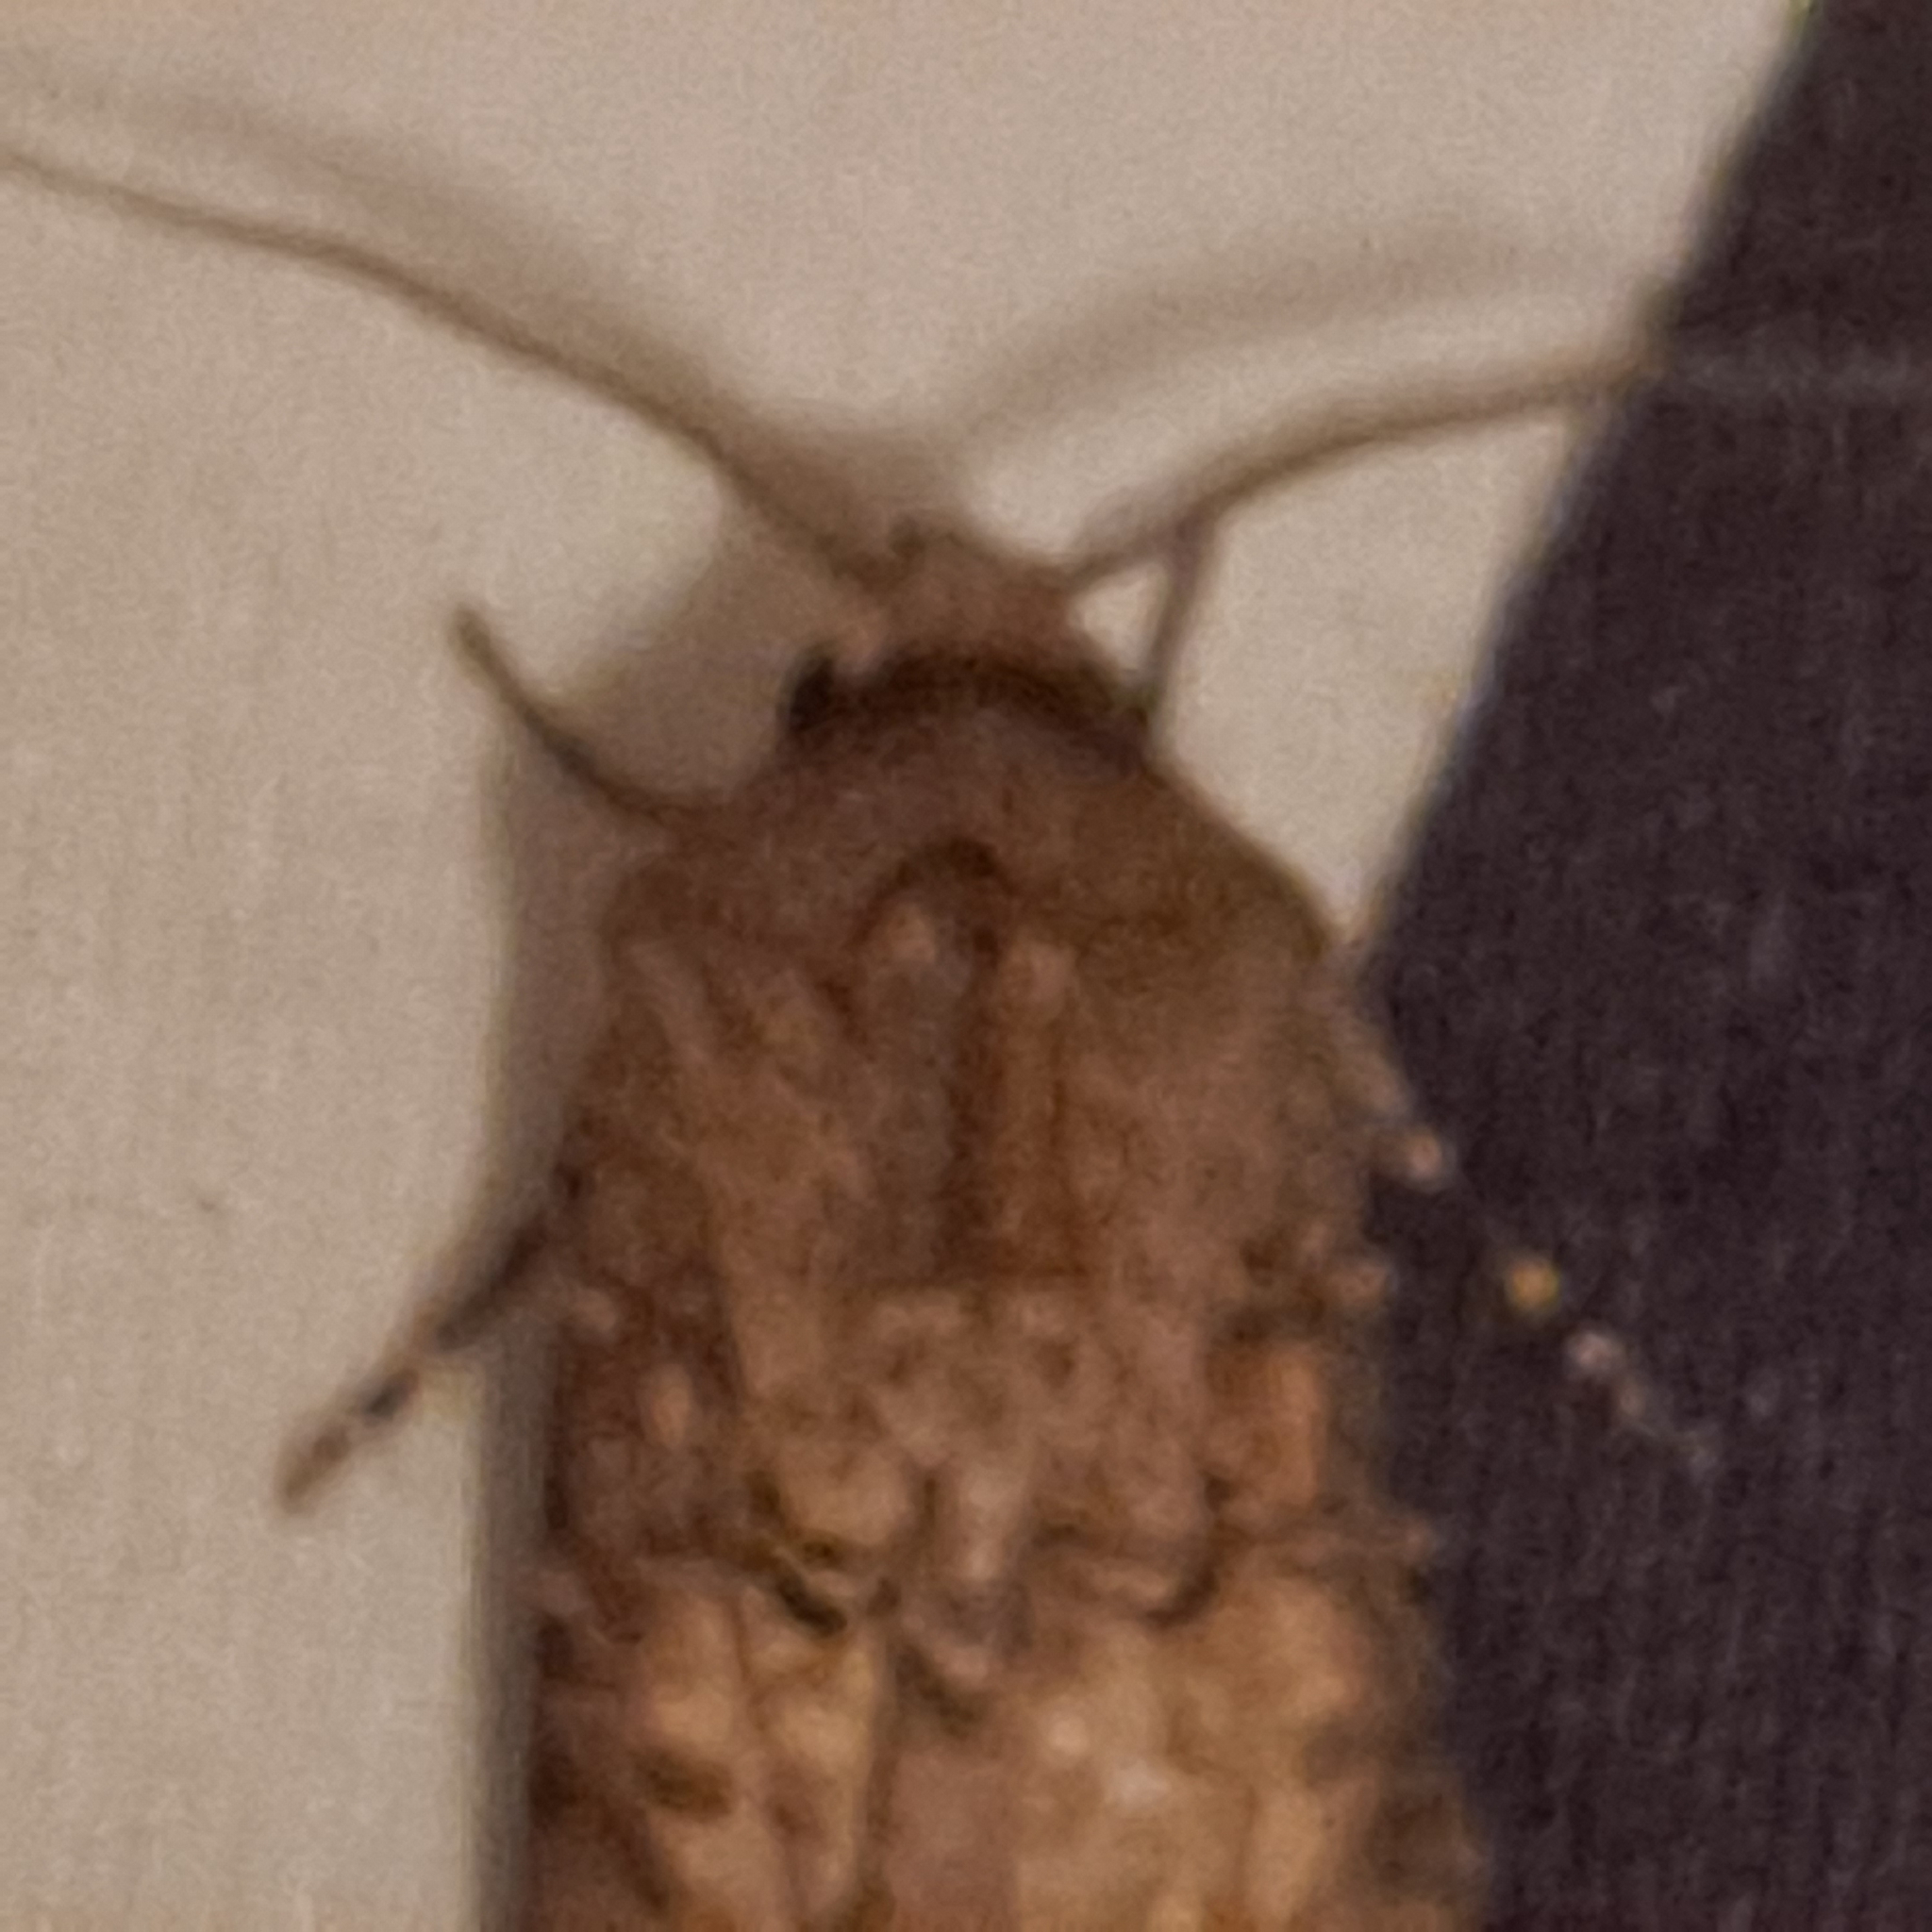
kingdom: Animalia
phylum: Arthropoda
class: Insecta
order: Lepidoptera
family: Noctuidae
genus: Agrotis
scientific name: Agrotis segetum
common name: Turnip moth
